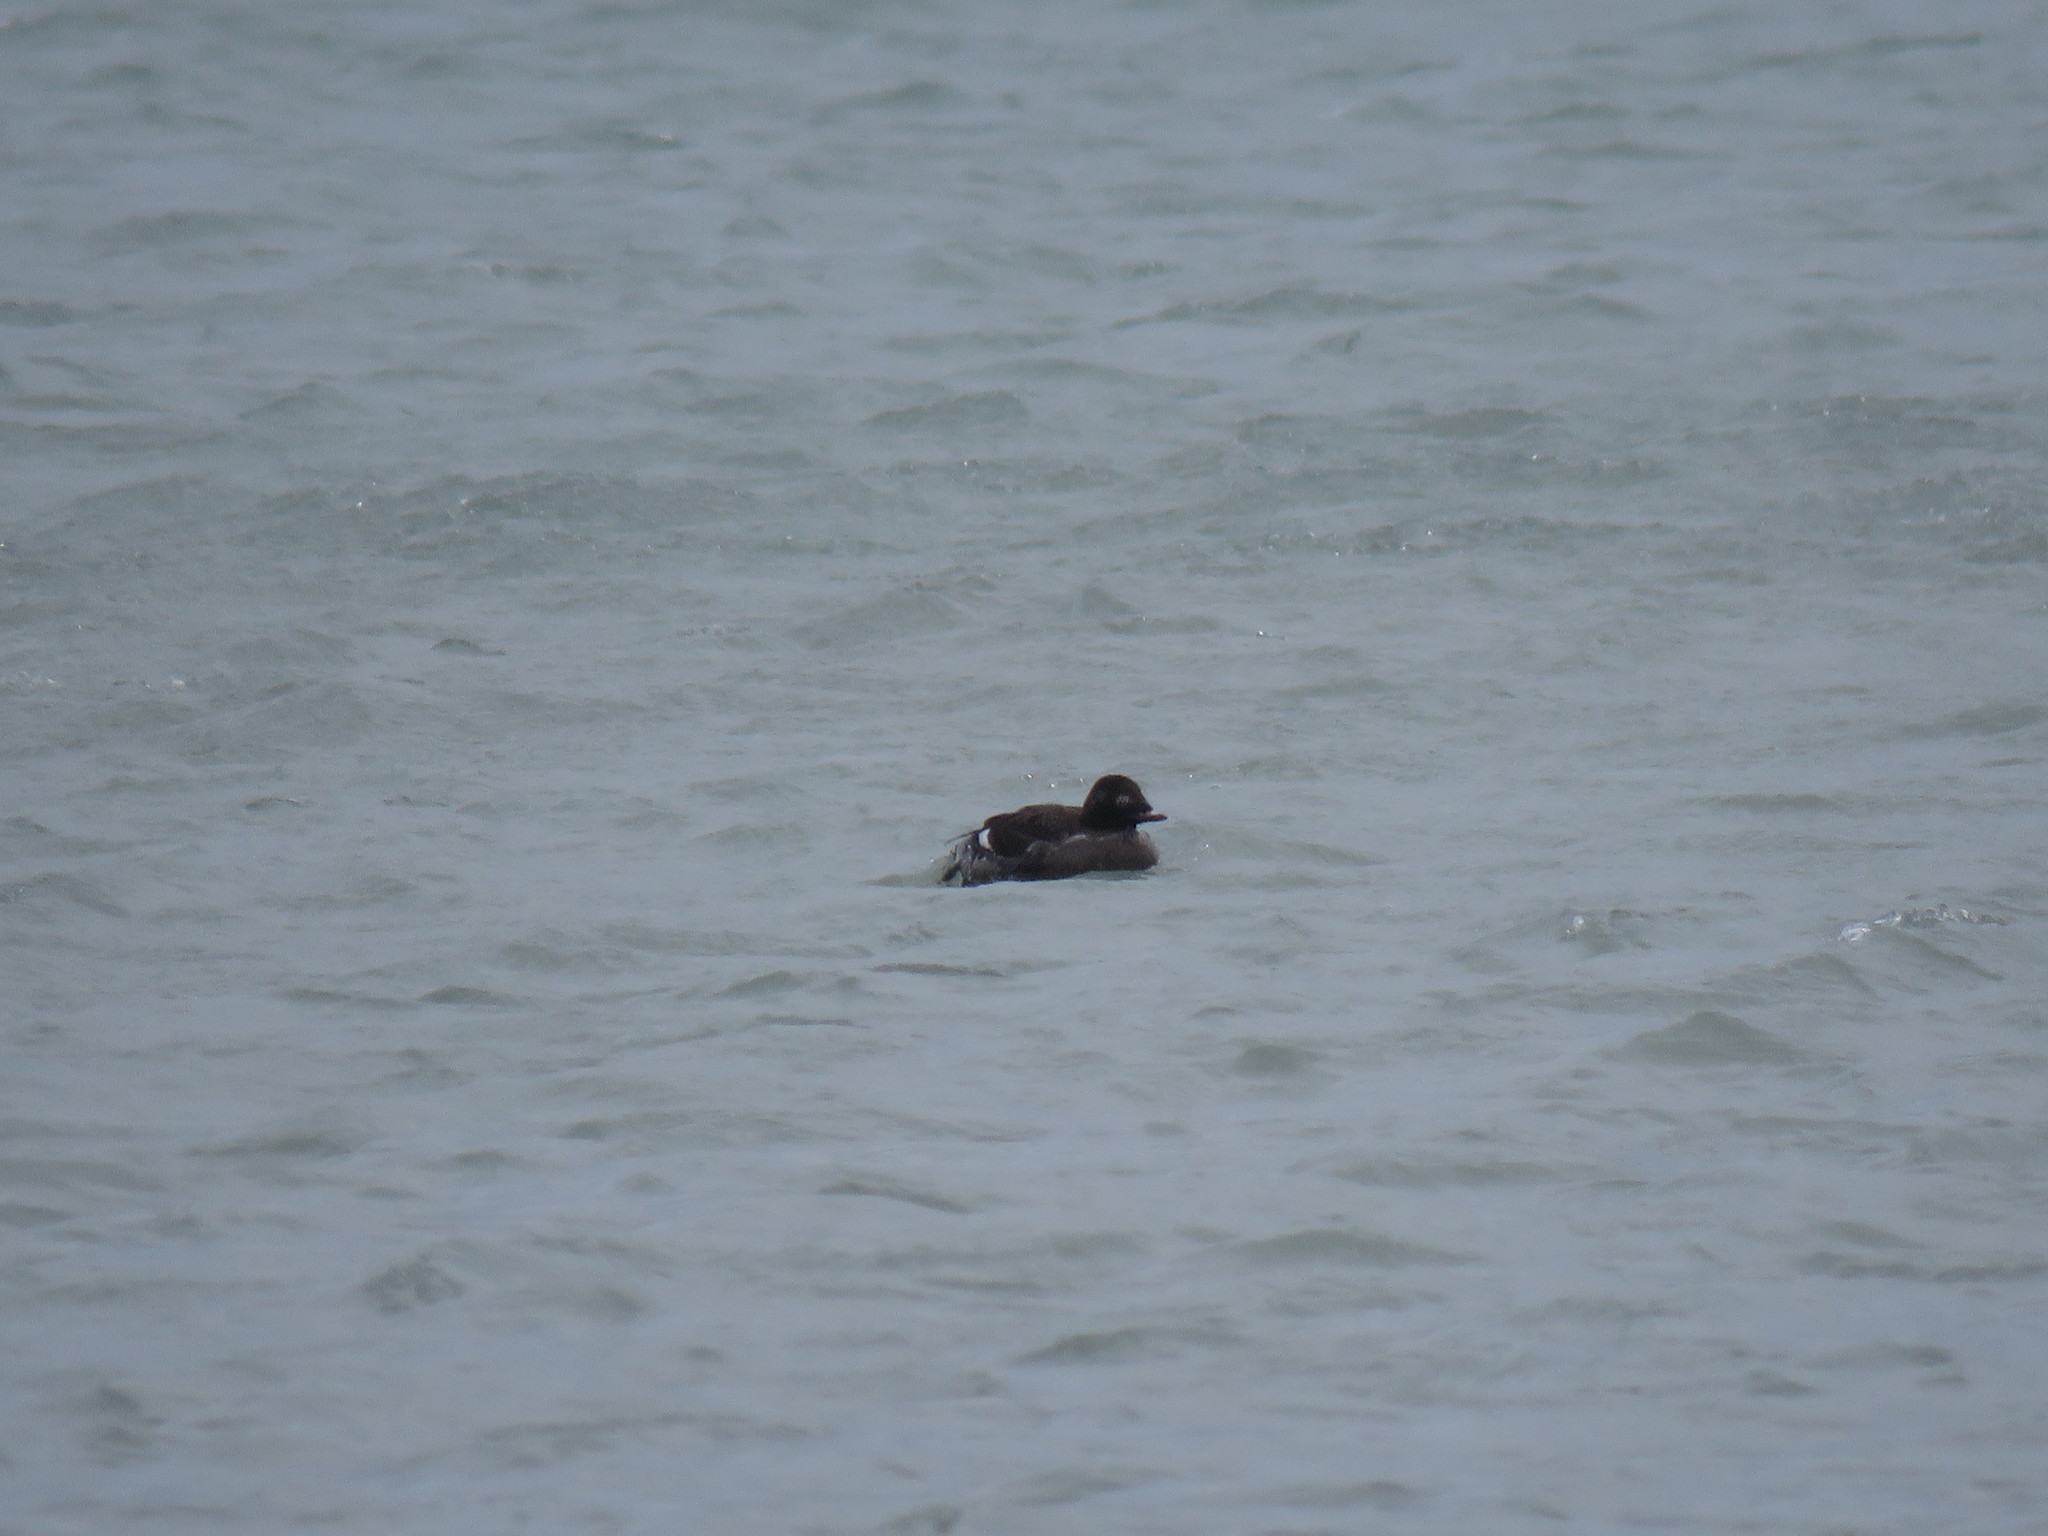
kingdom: Animalia
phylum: Chordata
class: Aves
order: Anseriformes
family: Anatidae
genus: Melanitta
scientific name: Melanitta deglandi
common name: White-winged scoter
